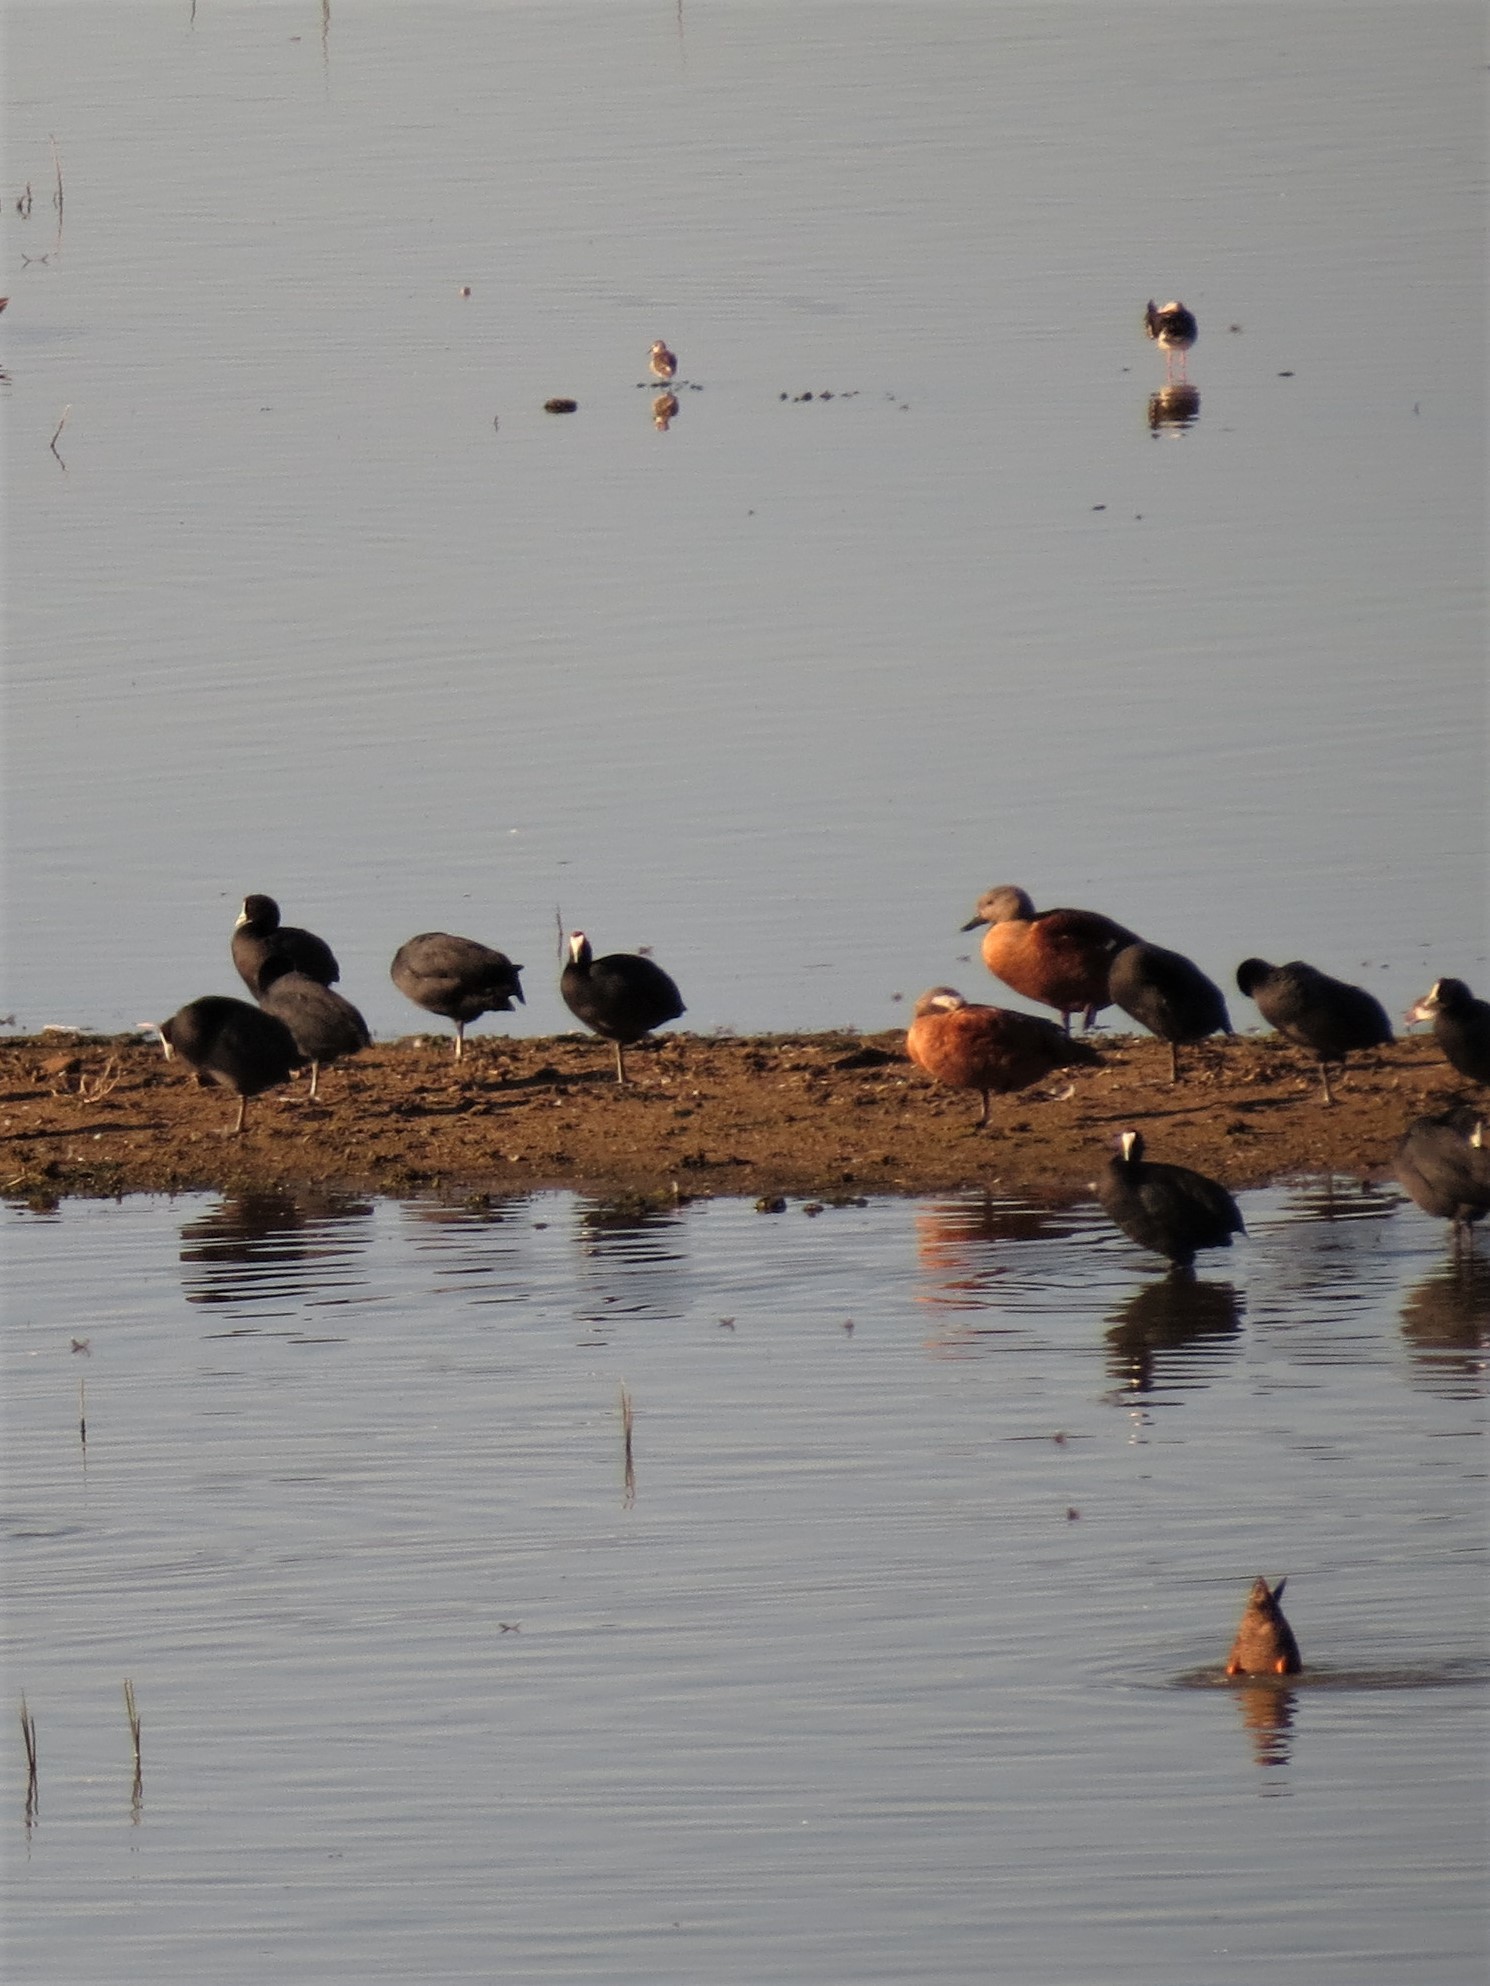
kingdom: Animalia
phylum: Chordata
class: Aves
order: Anseriformes
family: Anatidae
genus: Tadorna
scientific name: Tadorna cana
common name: South african shelduck
